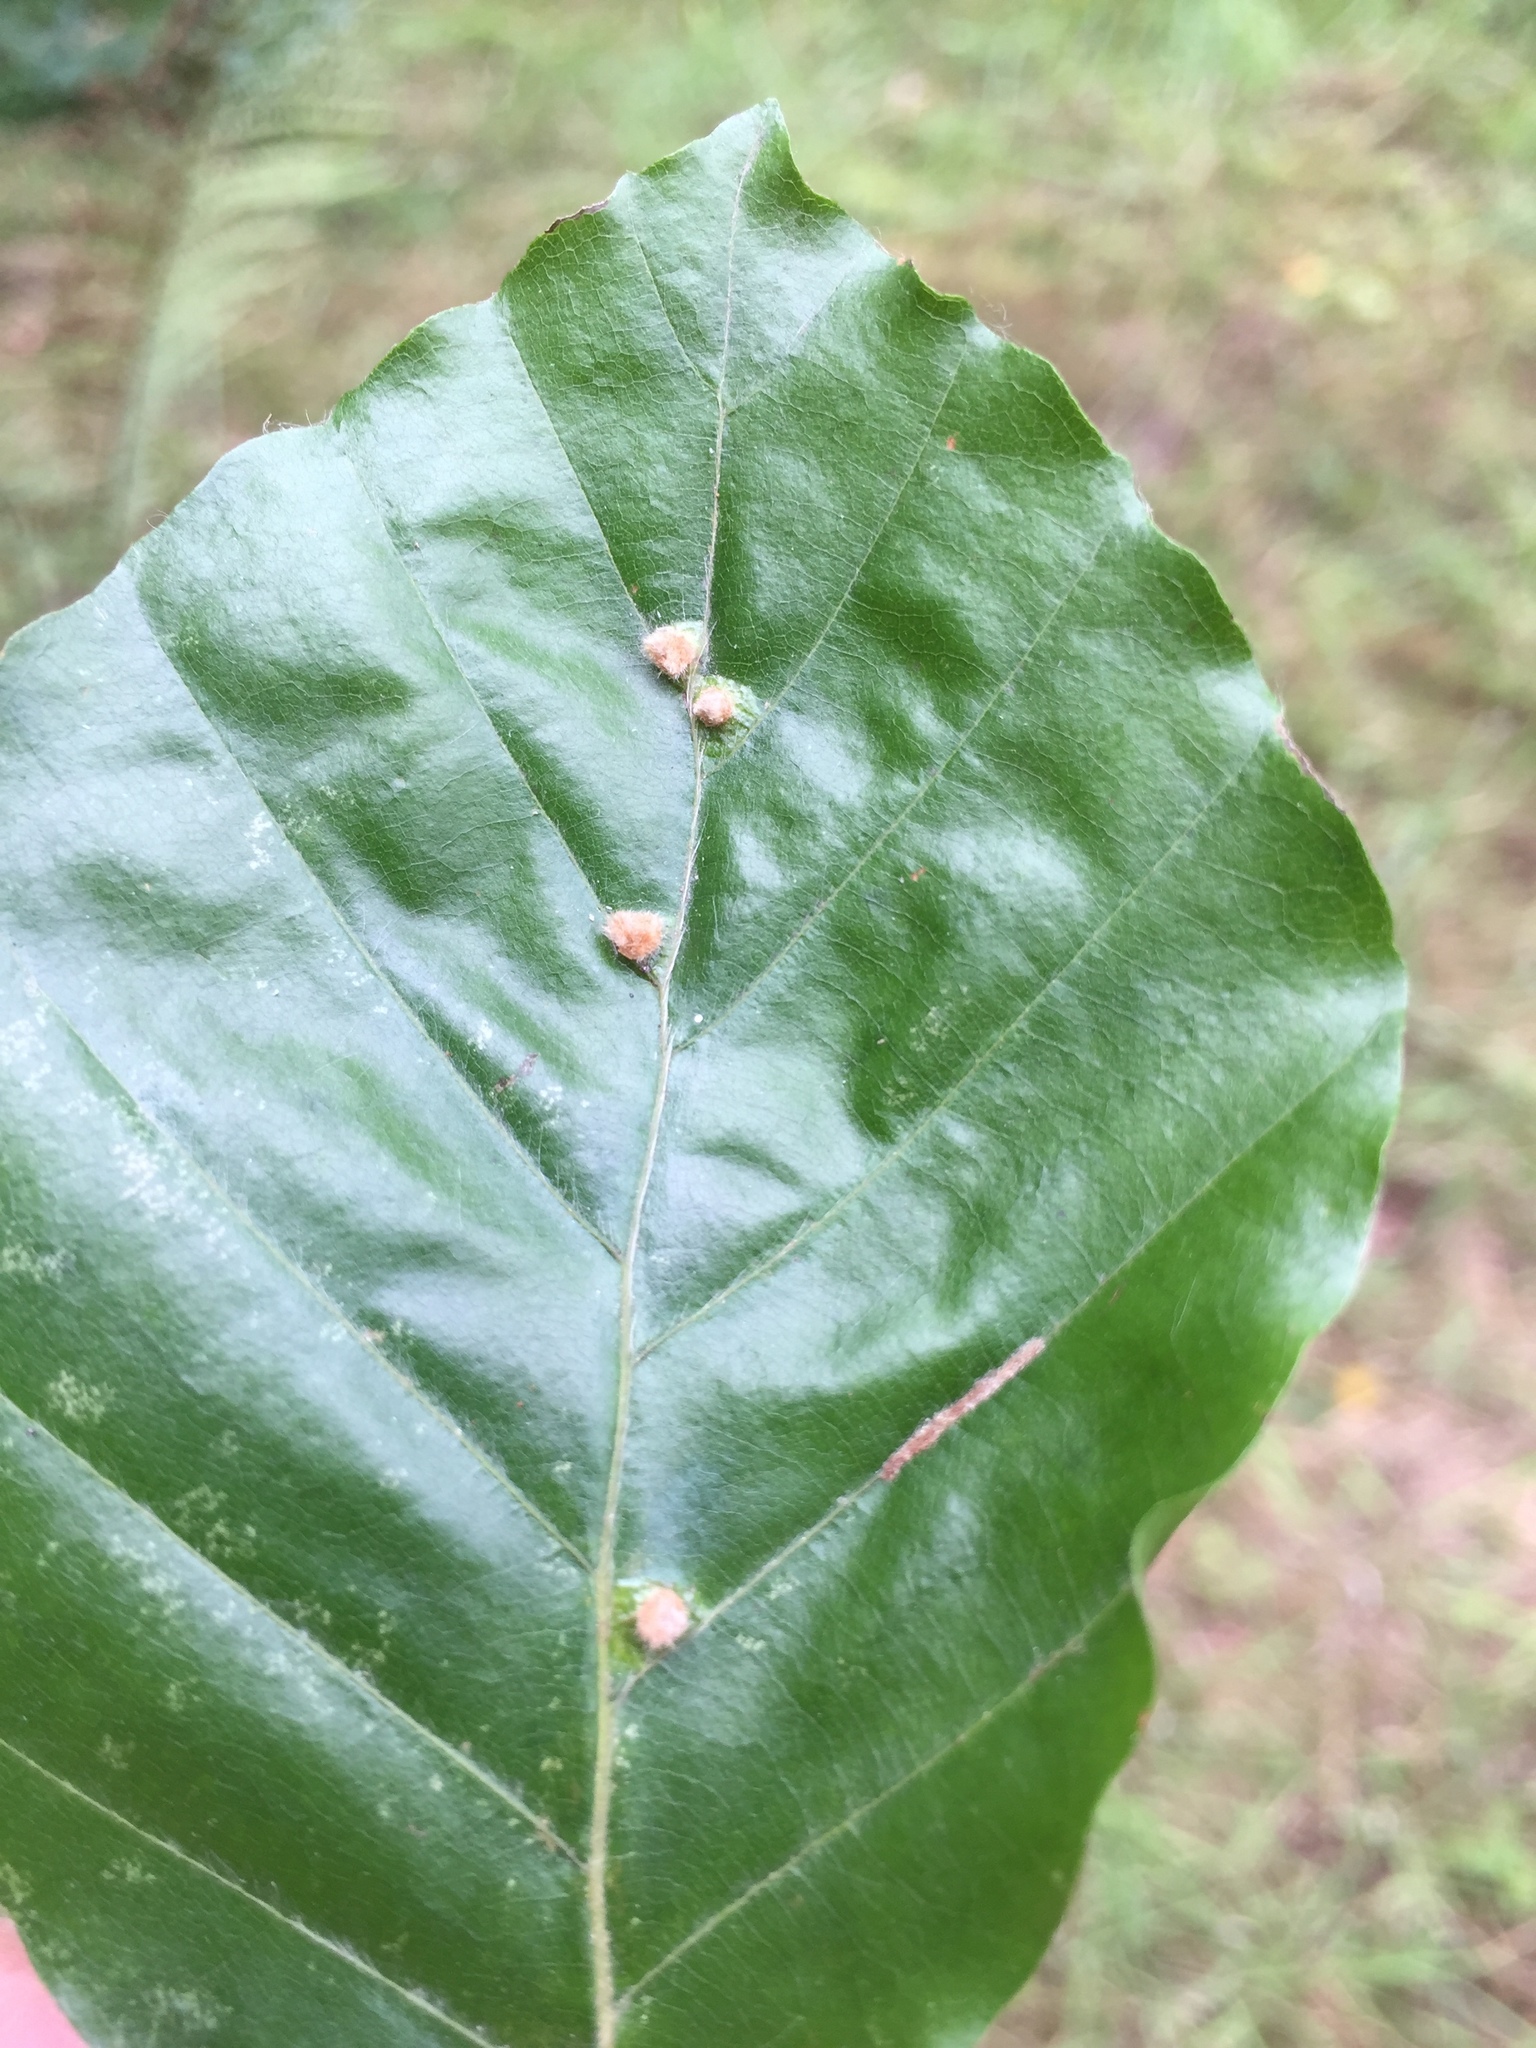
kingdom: Animalia
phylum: Arthropoda
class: Insecta
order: Diptera
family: Cecidomyiidae
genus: Hartigiola
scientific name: Hartigiola annulipes
